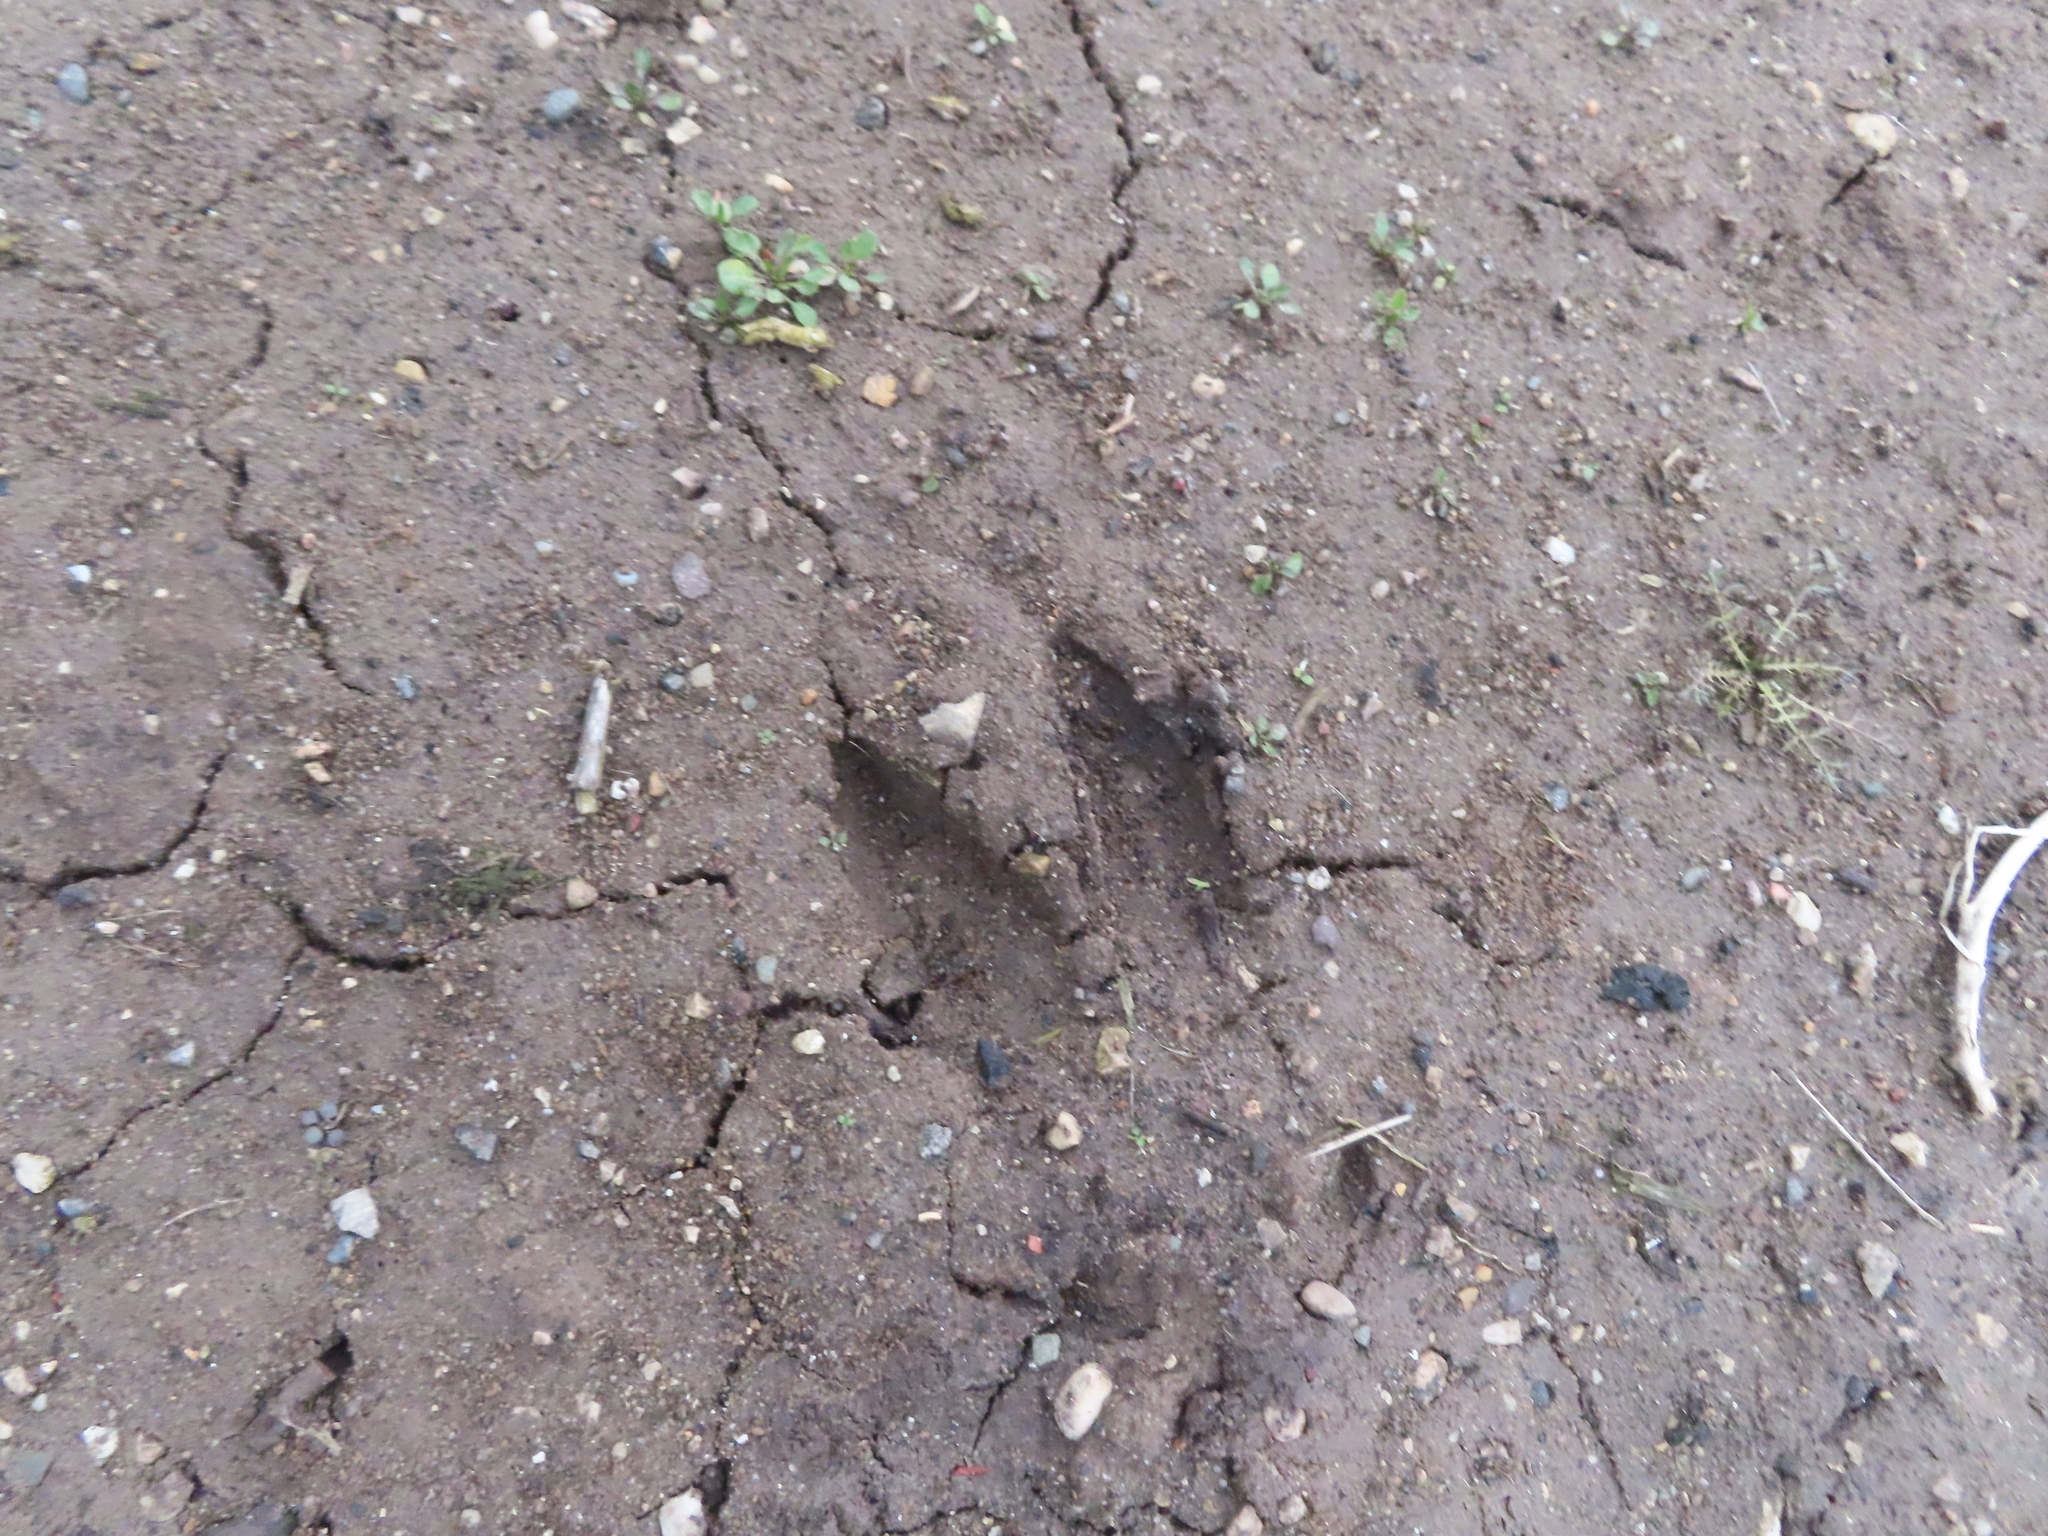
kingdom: Animalia
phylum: Chordata
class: Mammalia
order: Artiodactyla
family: Cervidae
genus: Odocoileus
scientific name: Odocoileus virginianus
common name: White-tailed deer
